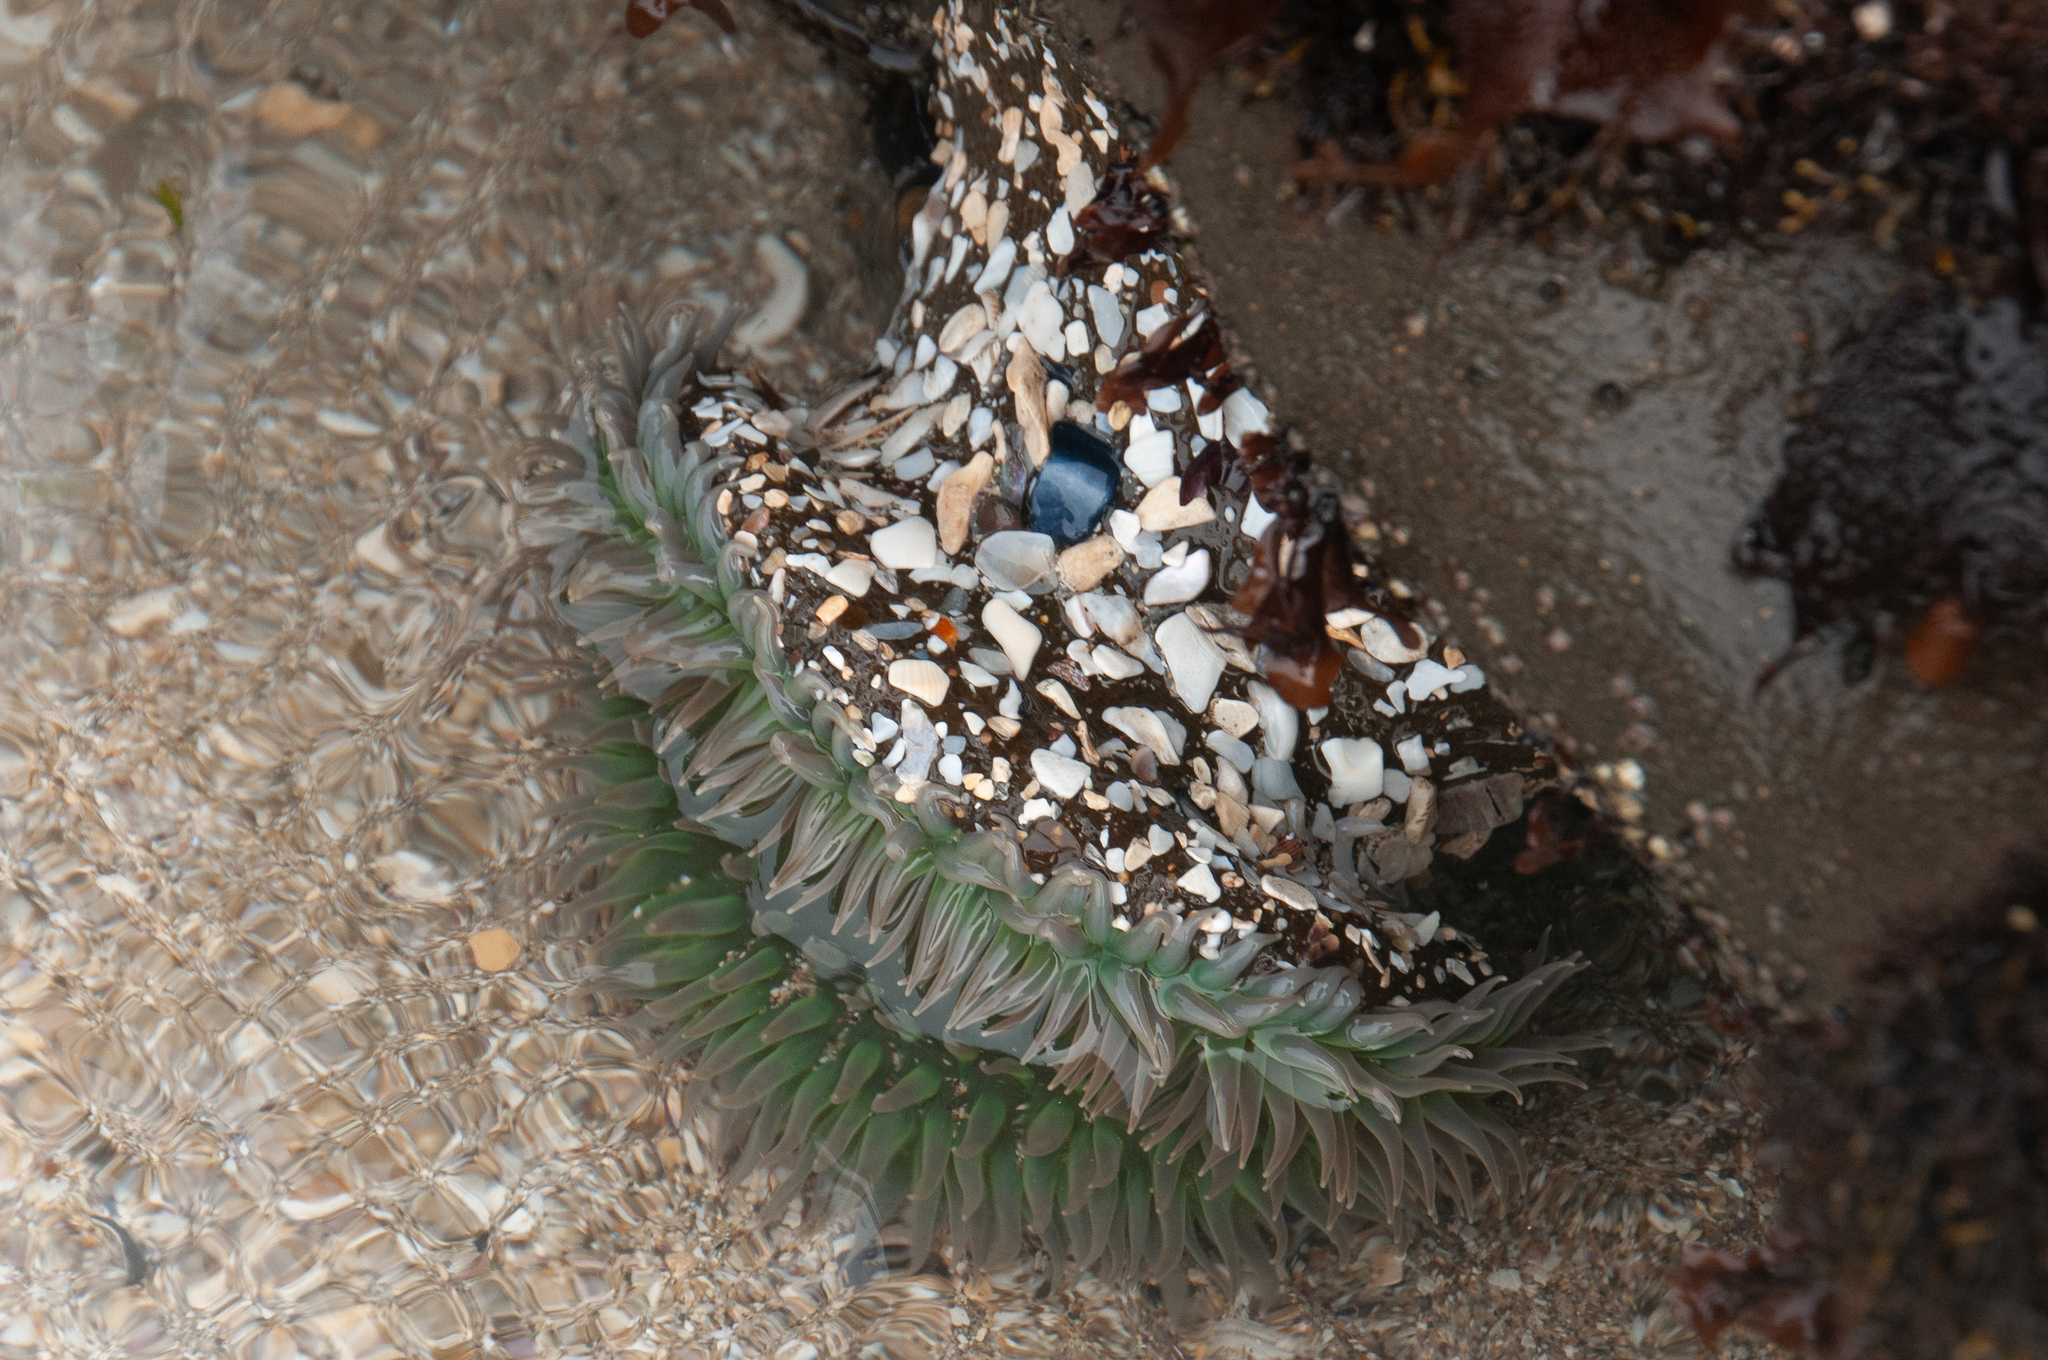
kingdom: Animalia
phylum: Cnidaria
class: Anthozoa
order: Actiniaria
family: Actiniidae
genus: Anthopleura
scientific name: Anthopleura xanthogrammica
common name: Giant green anemone
